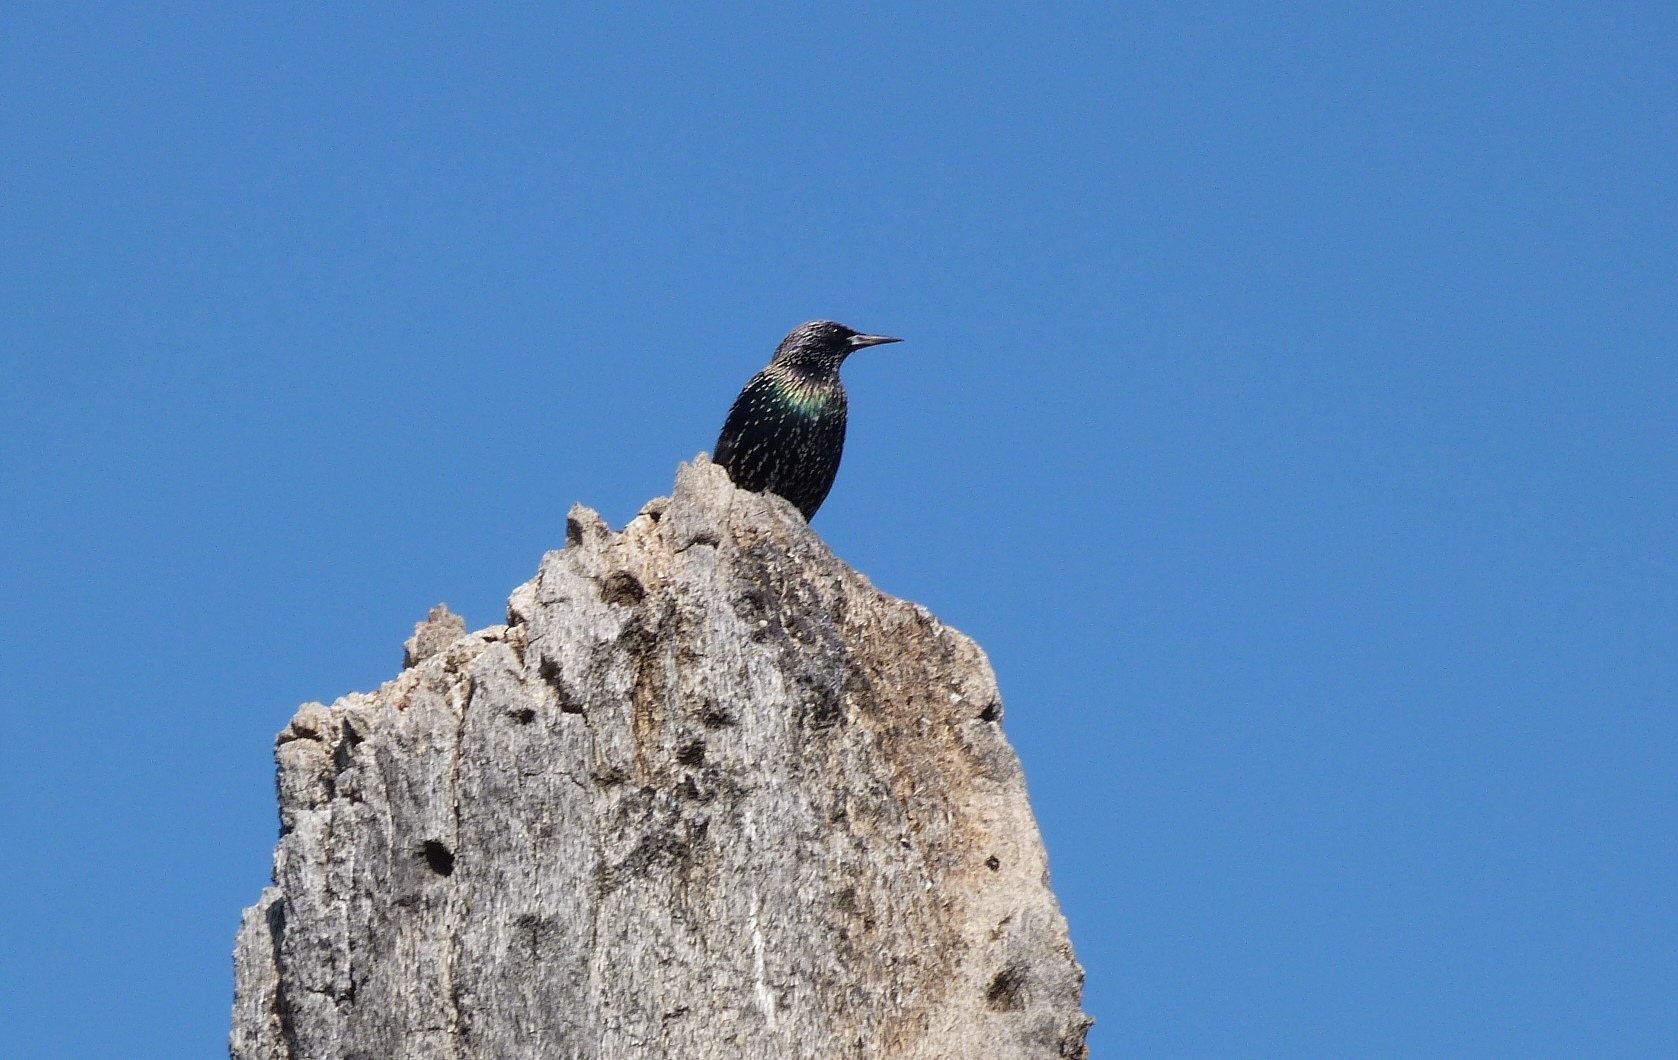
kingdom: Animalia
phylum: Chordata
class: Aves
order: Passeriformes
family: Sturnidae
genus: Sturnus
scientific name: Sturnus vulgaris
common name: Common starling
